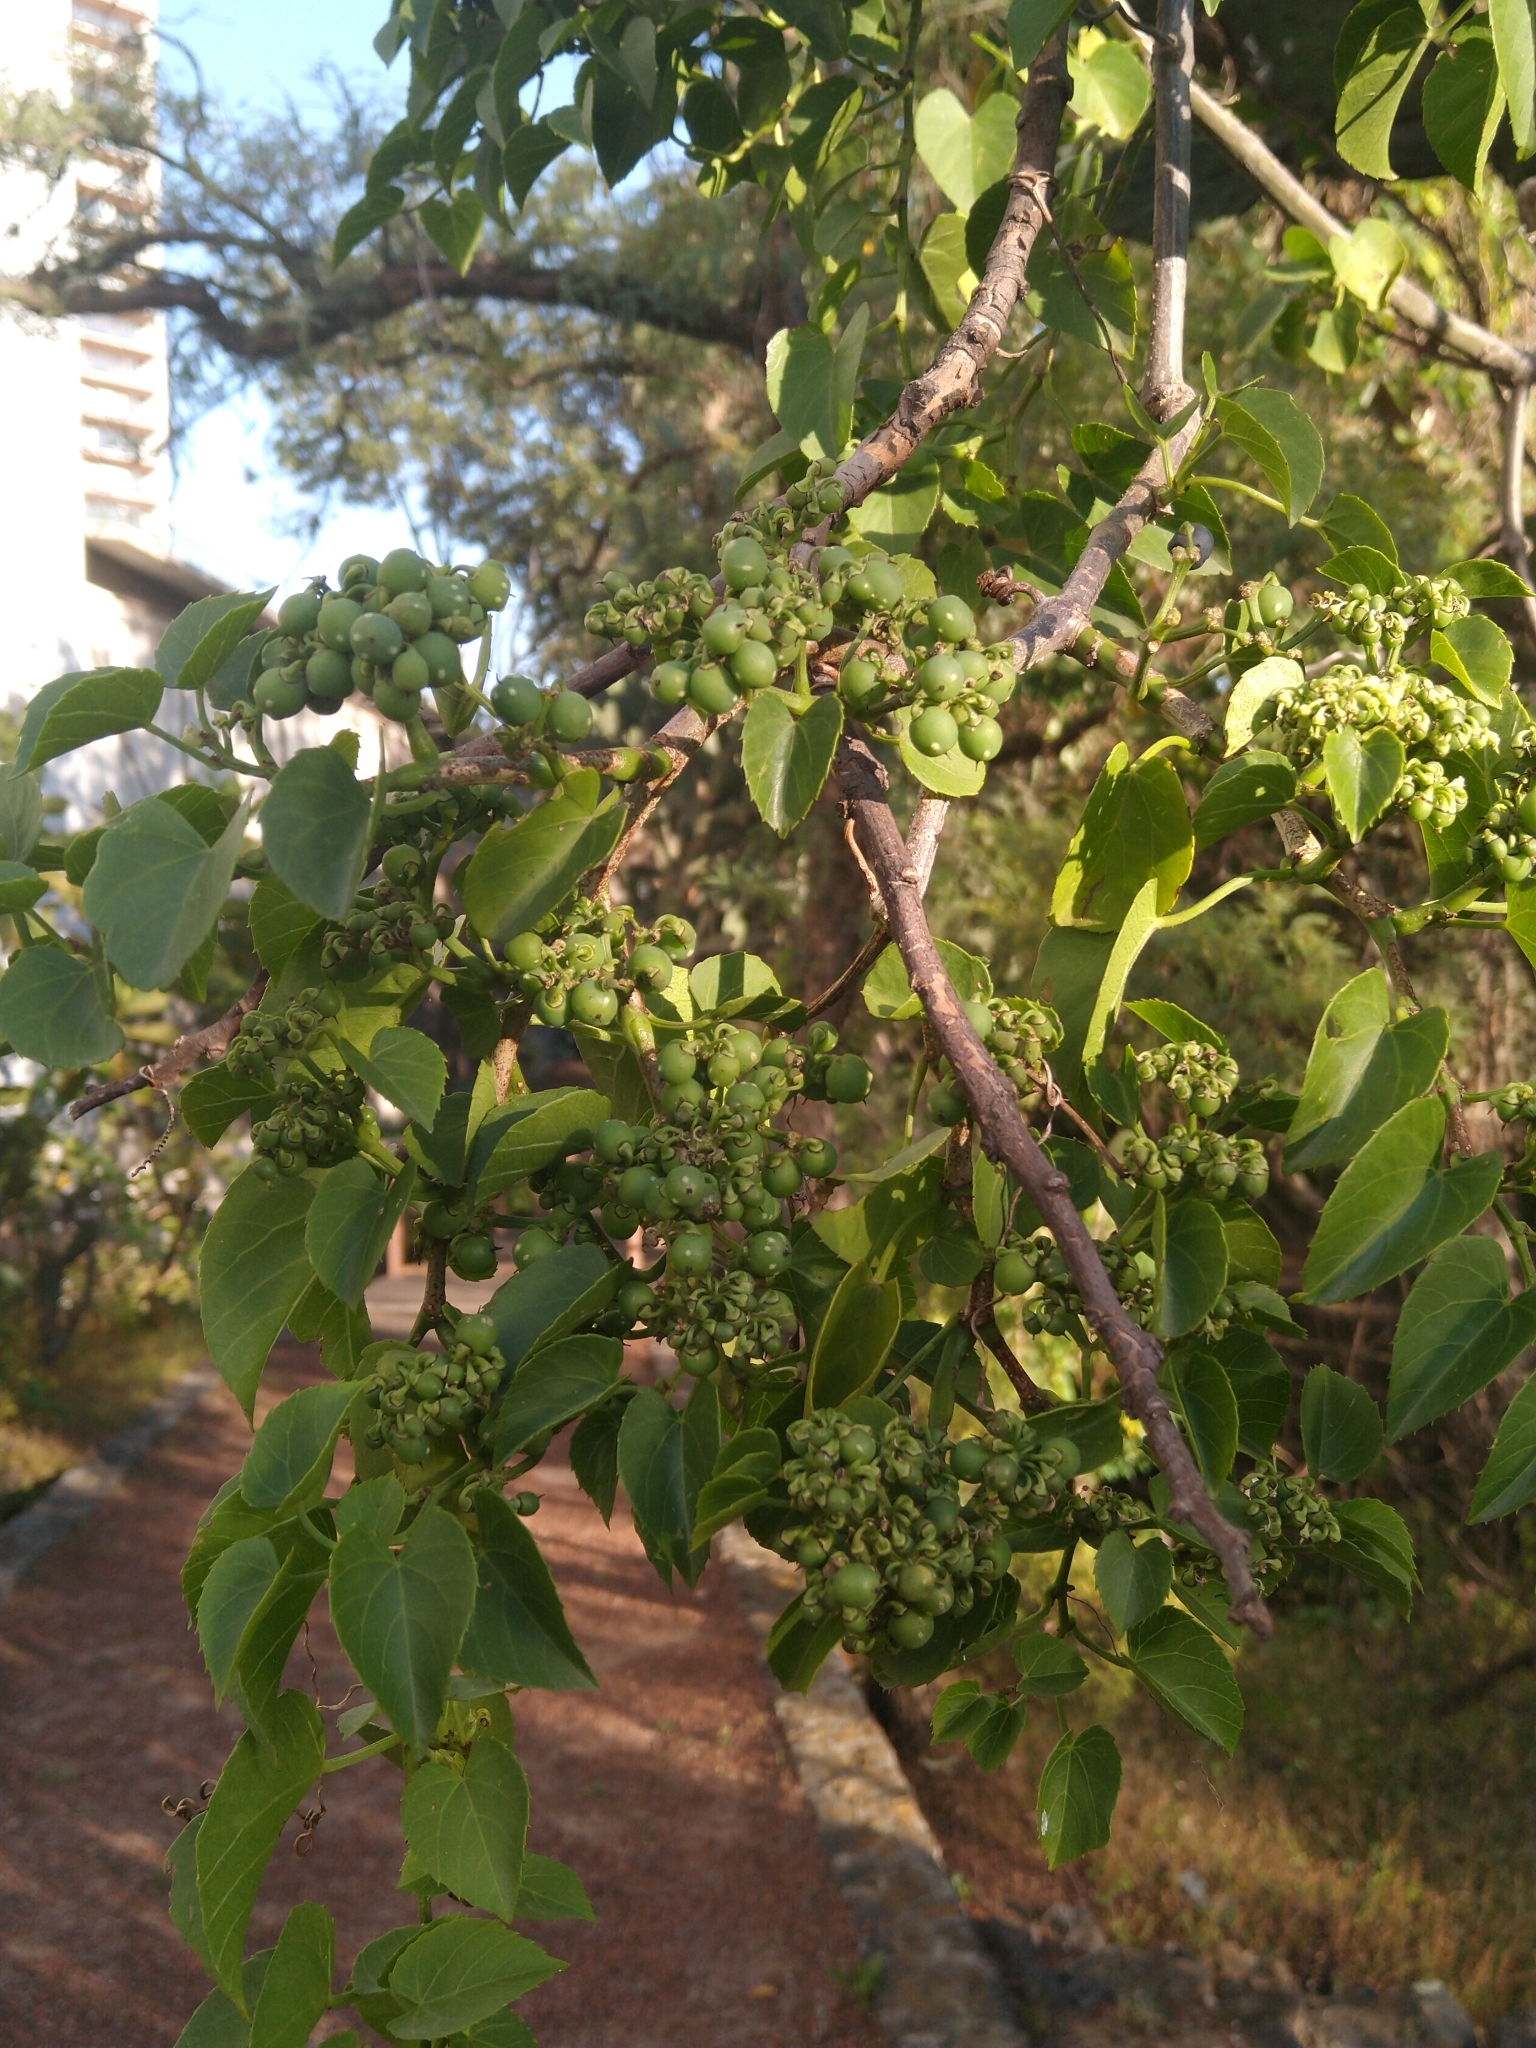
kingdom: Plantae
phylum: Tracheophyta
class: Magnoliopsida
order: Vitales
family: Vitaceae
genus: Cissus
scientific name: Cissus verticillata
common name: Princess vine
